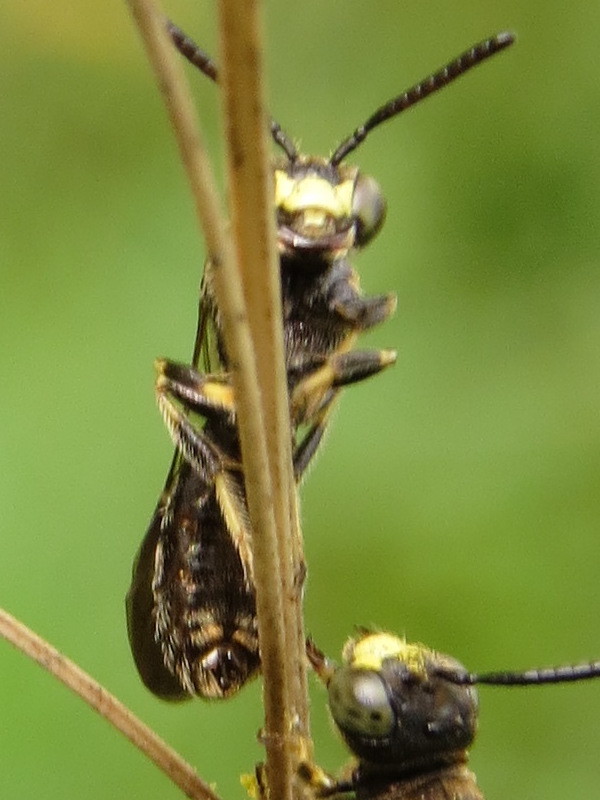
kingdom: Animalia
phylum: Arthropoda
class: Insecta
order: Hymenoptera
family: Andrenidae
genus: Pseudopanurgus
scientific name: Pseudopanurgus andrenoides
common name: Eastern bare-miner
